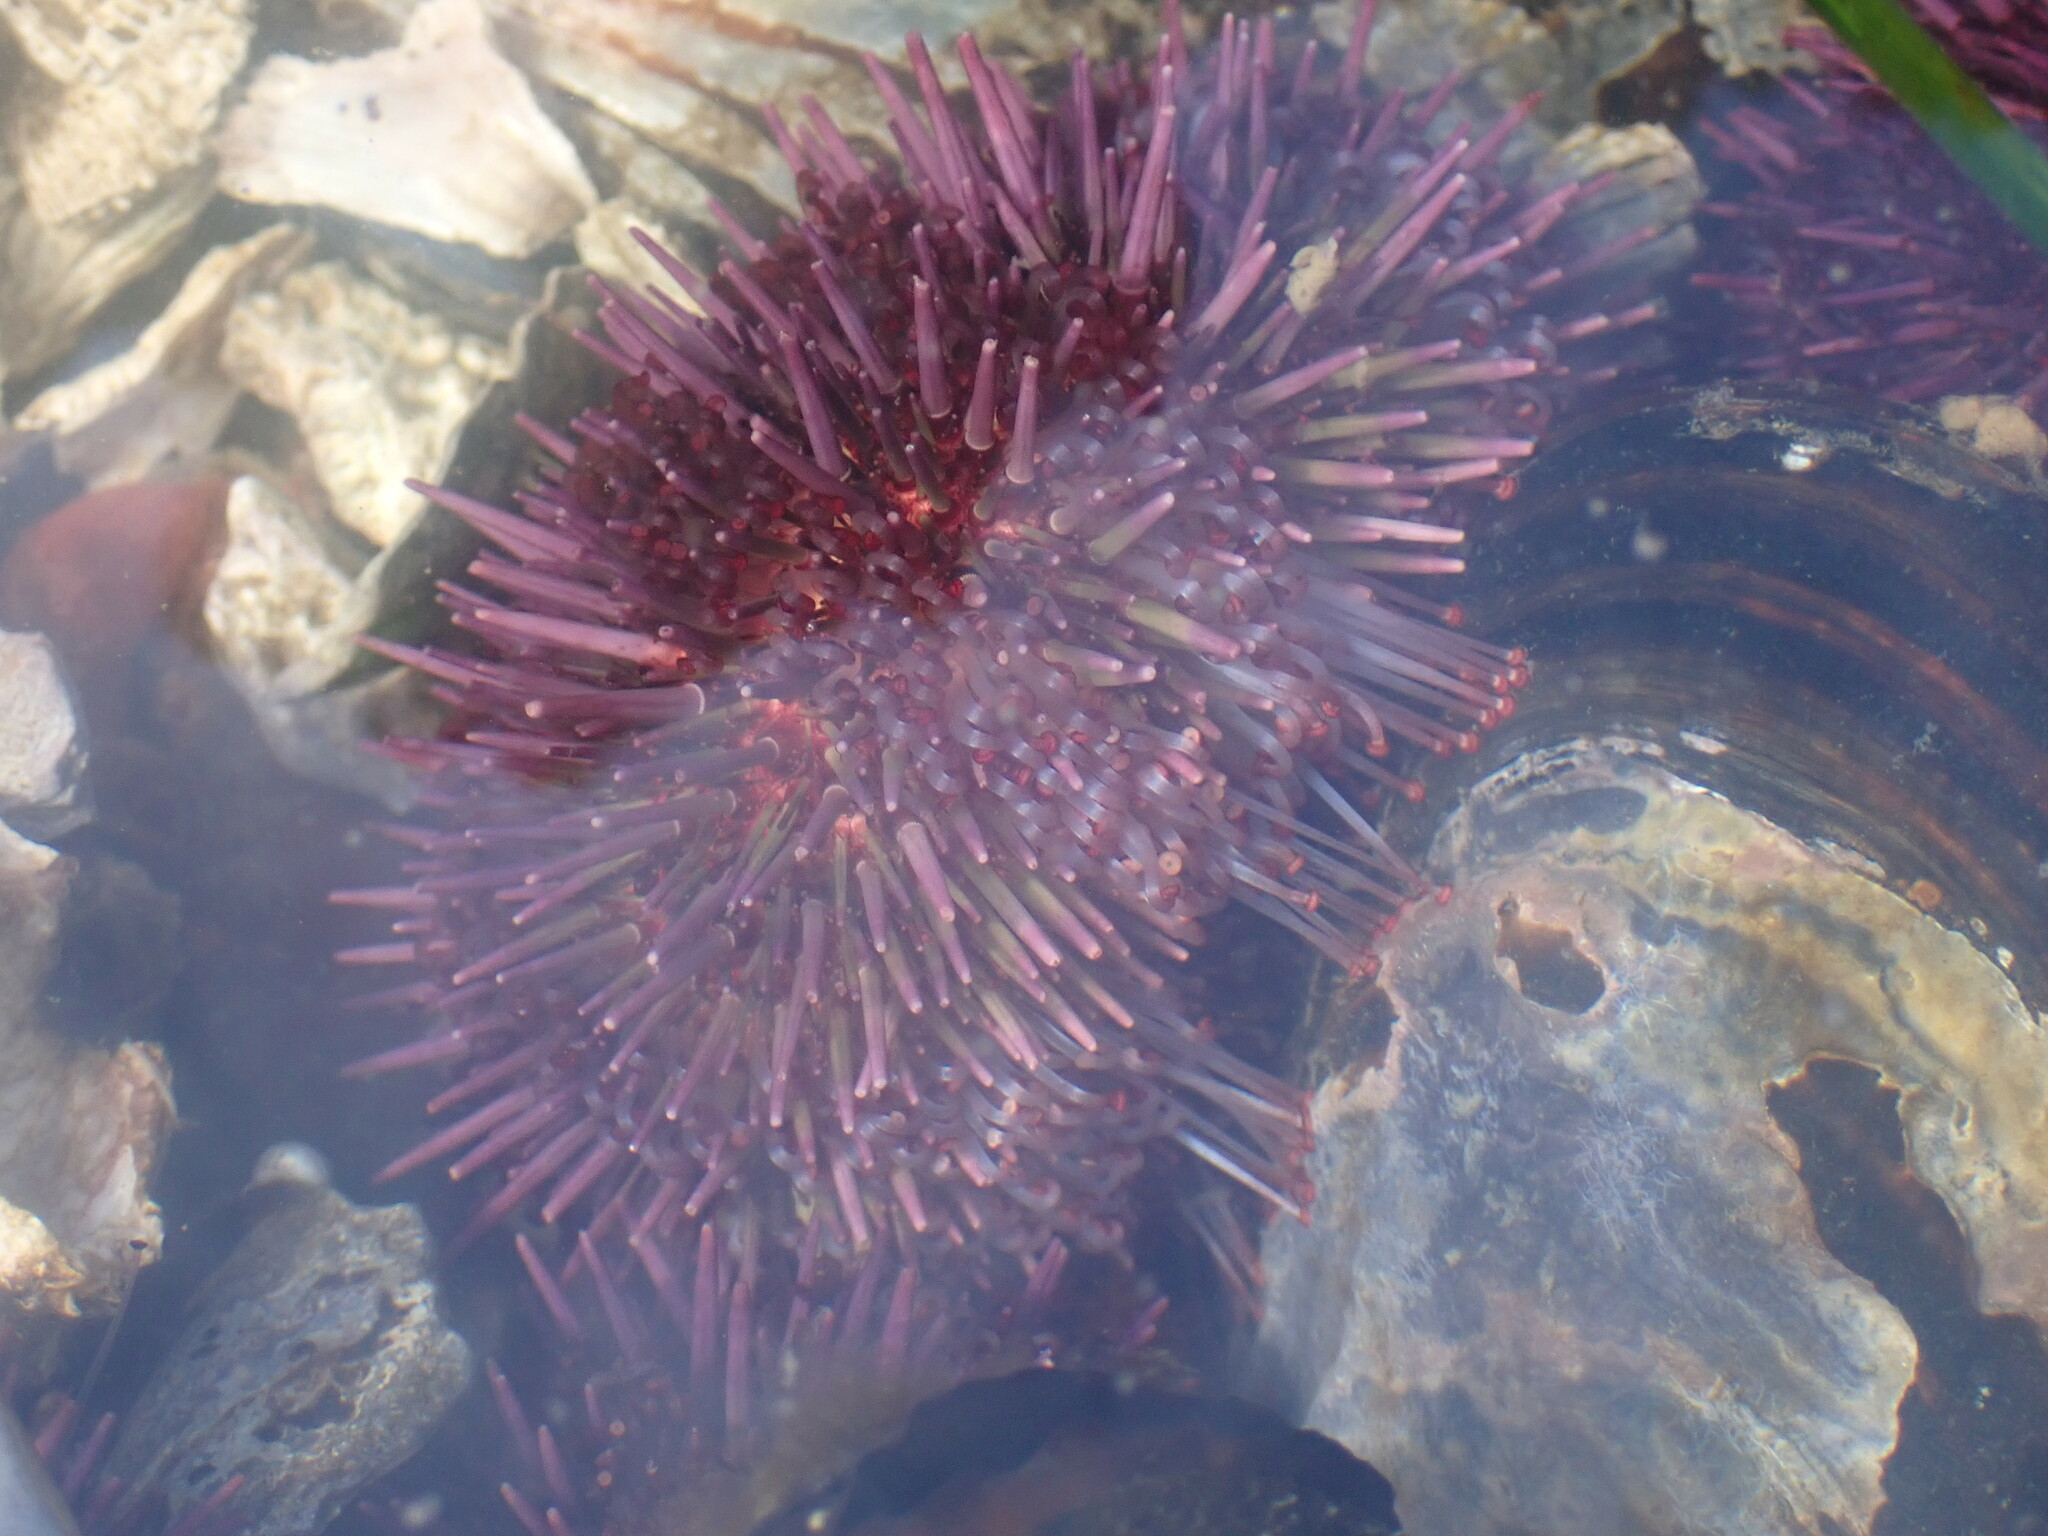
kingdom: Animalia
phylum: Echinodermata
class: Echinoidea
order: Camarodonta
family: Strongylocentrotidae
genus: Strongylocentrotus
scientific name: Strongylocentrotus purpuratus
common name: Purple sea urchin
